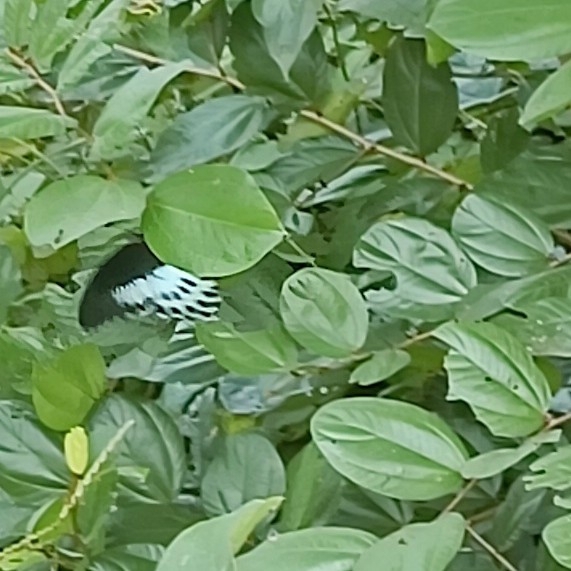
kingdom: Animalia
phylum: Arthropoda
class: Insecta
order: Lepidoptera
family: Papilionidae
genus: Papilio
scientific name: Papilio memnon
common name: Great mormon
